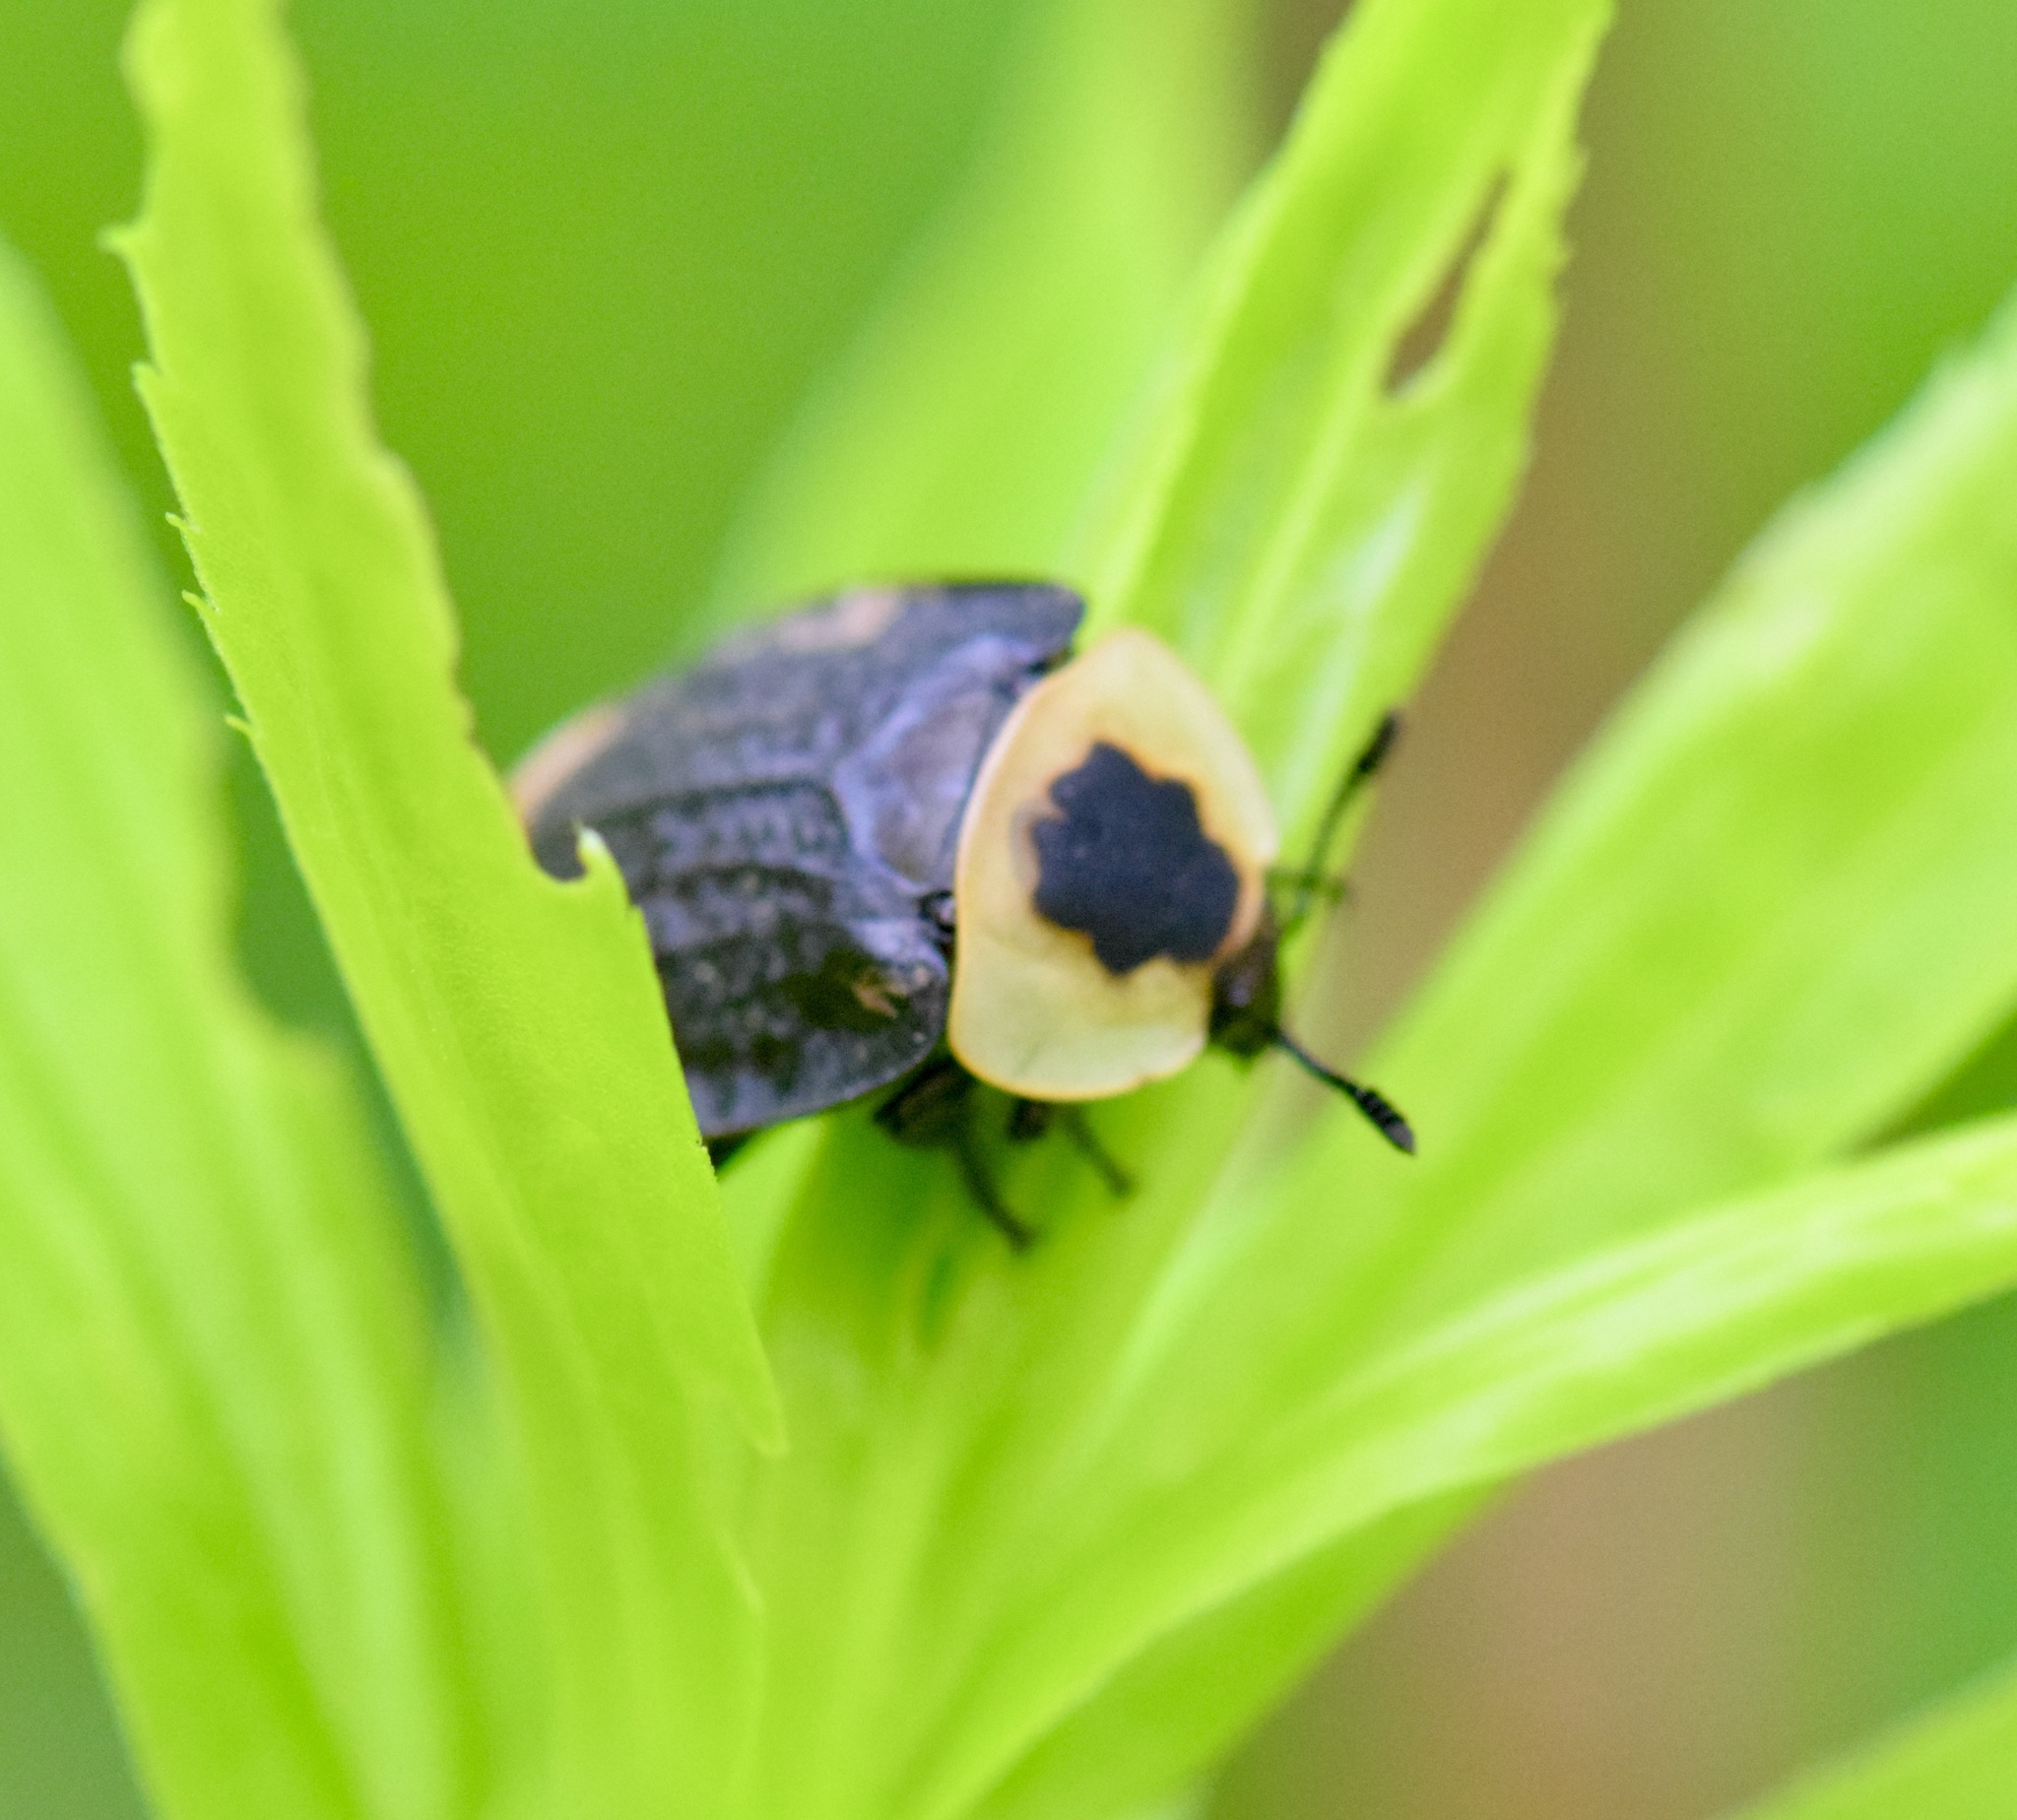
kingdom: Animalia
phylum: Arthropoda
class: Insecta
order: Coleoptera
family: Staphylinidae
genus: Necrophila
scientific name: Necrophila americana
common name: American carrion beetle
